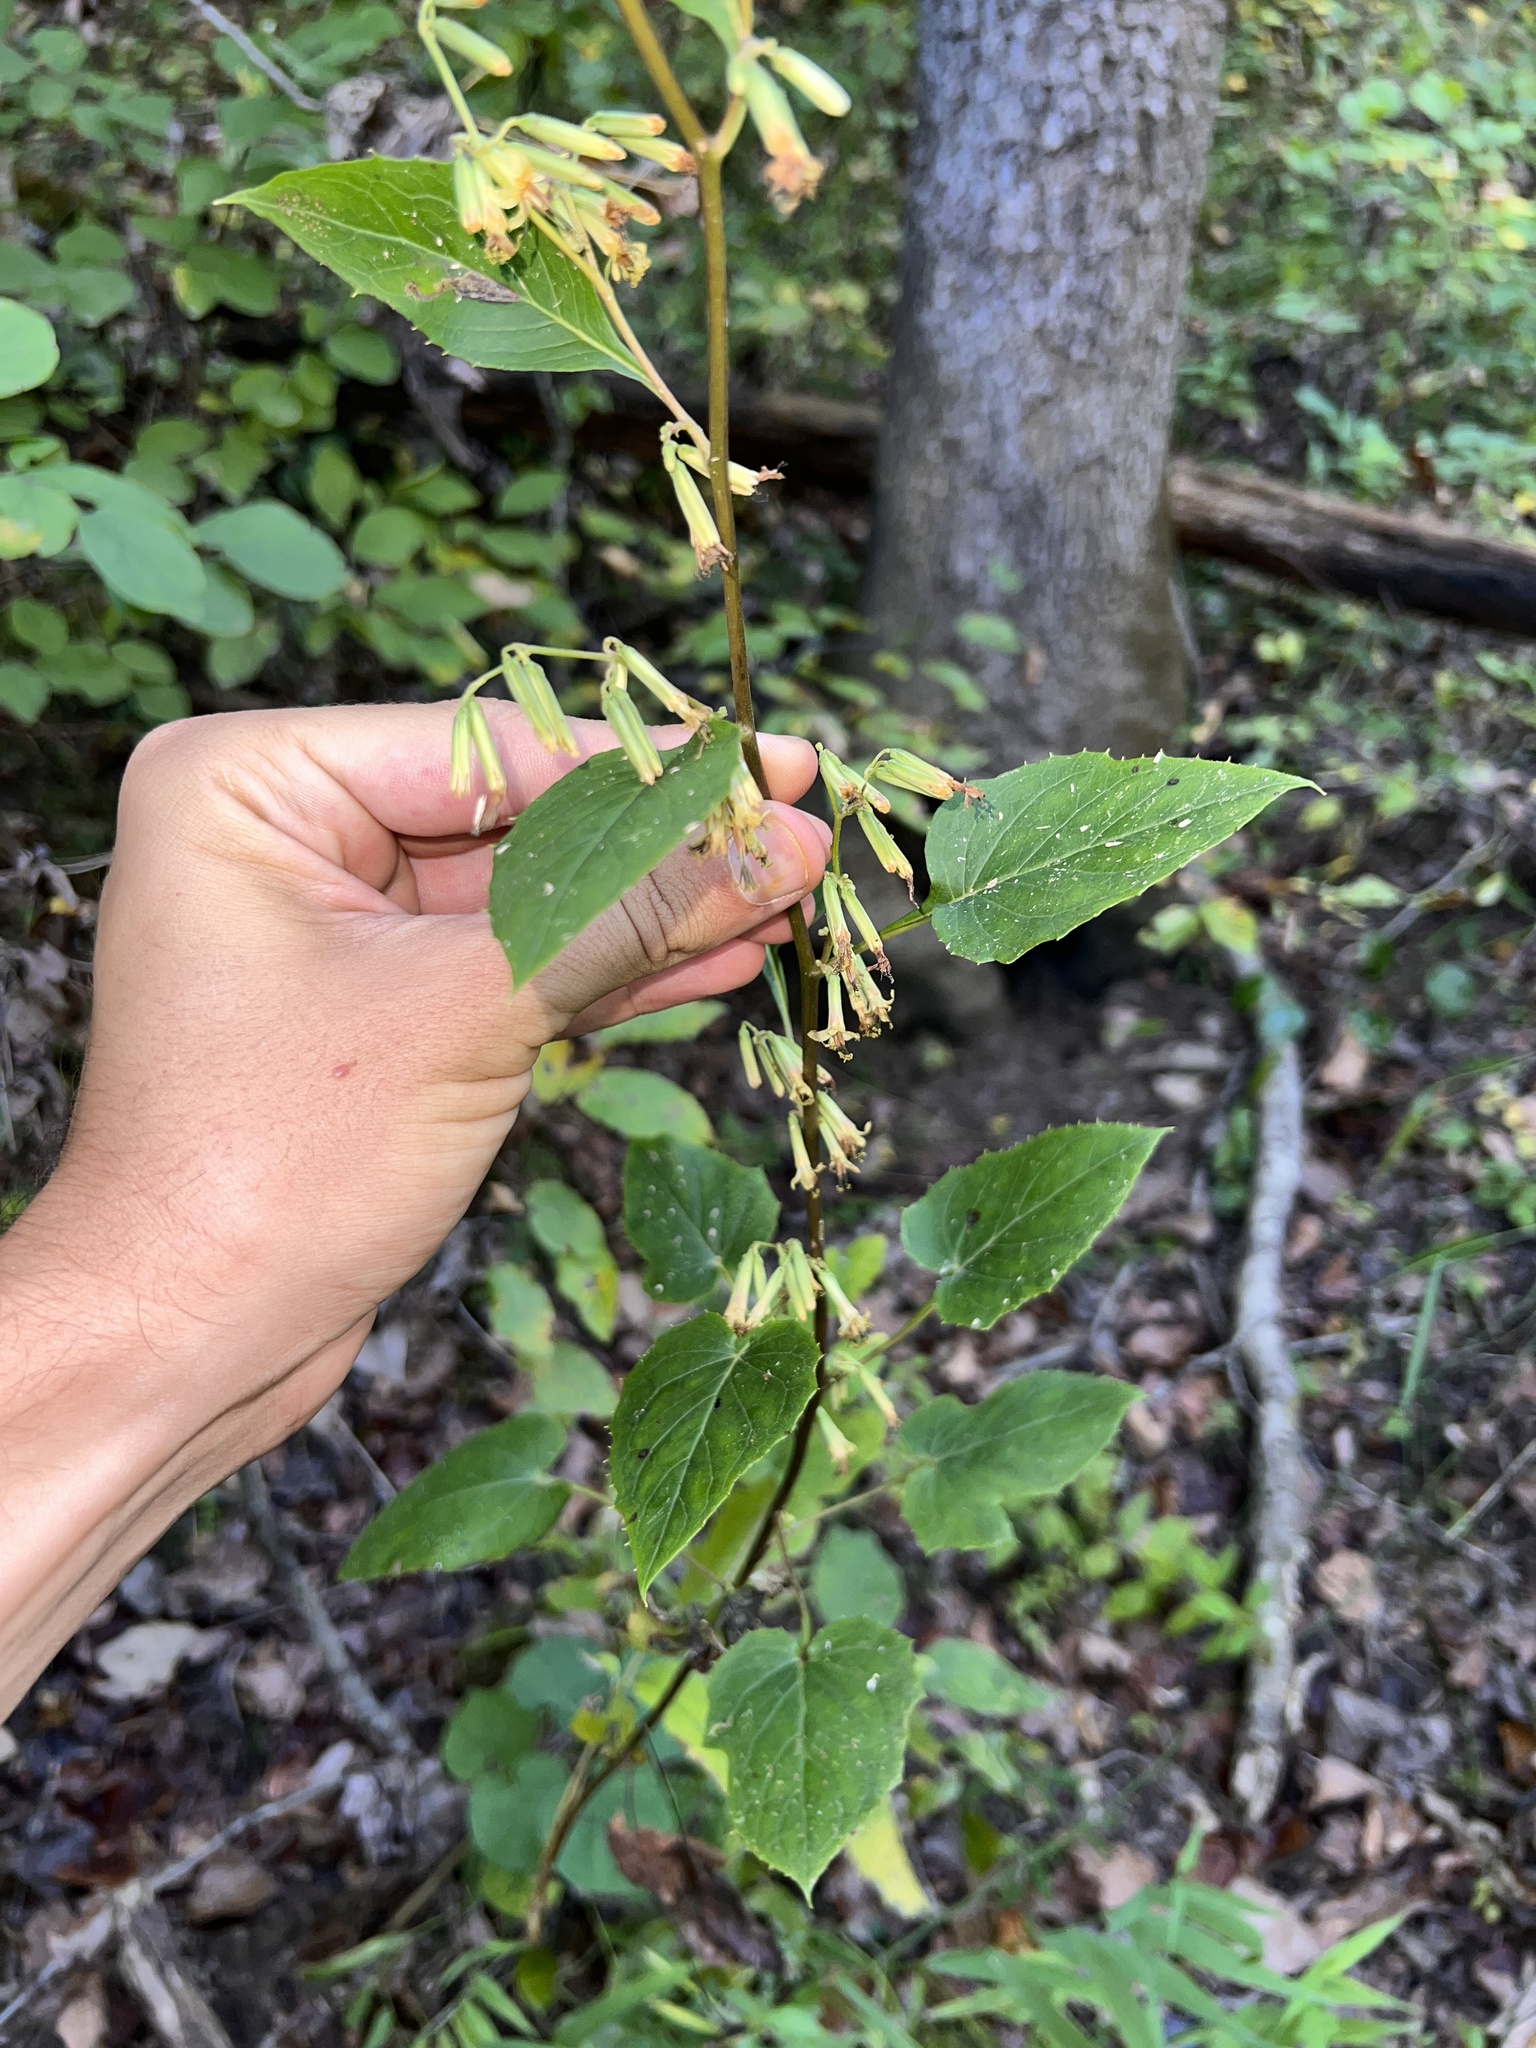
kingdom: Plantae
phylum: Tracheophyta
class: Magnoliopsida
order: Asterales
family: Asteraceae
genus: Nabalus
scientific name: Nabalus altissima
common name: Tall rattlesnakeroot
